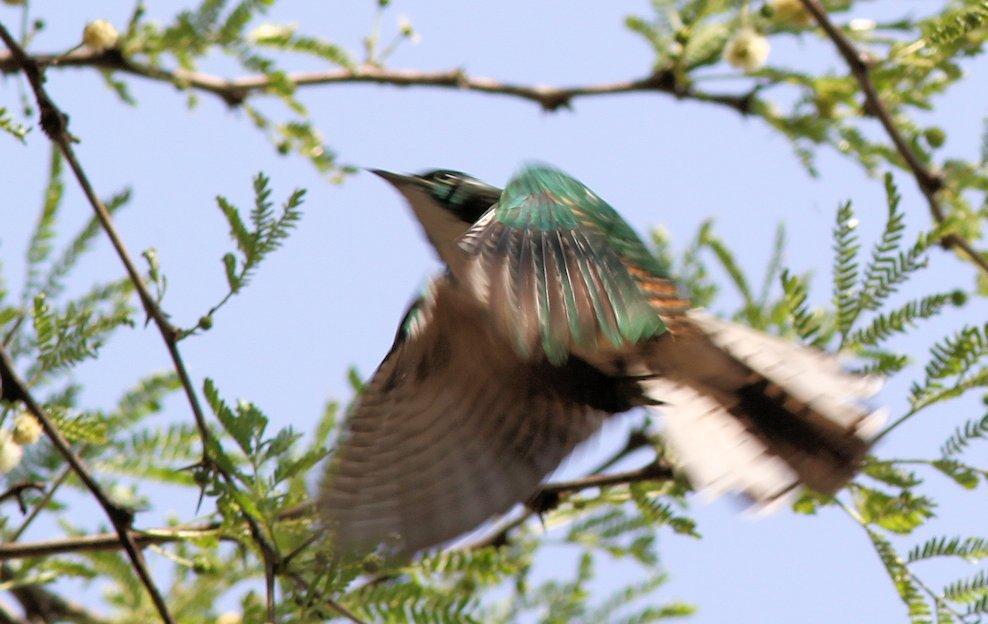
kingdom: Animalia
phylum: Chordata
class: Aves
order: Cuculiformes
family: Cuculidae
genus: Chrysococcyx
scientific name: Chrysococcyx klaas
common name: Klaas's cuckoo
